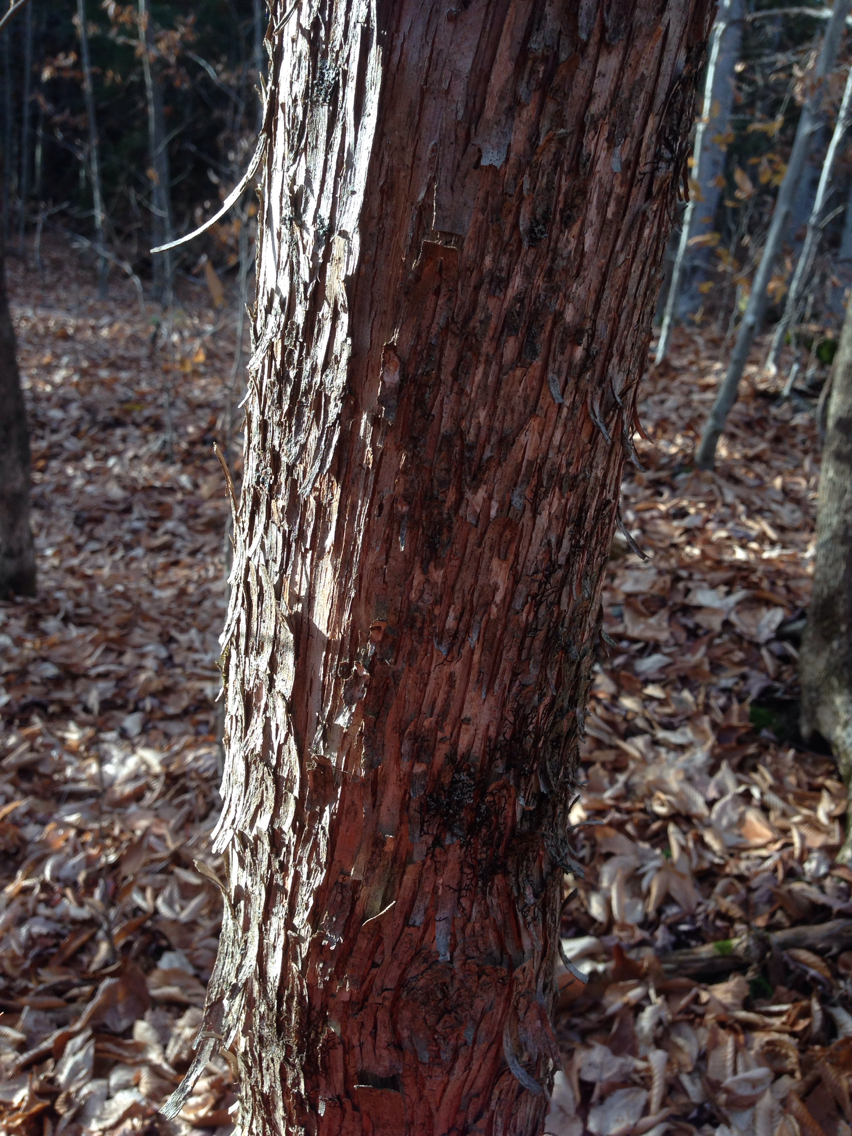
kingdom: Plantae
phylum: Tracheophyta
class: Magnoliopsida
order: Fagales
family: Betulaceae
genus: Ostrya
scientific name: Ostrya virginiana
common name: Ironwood
